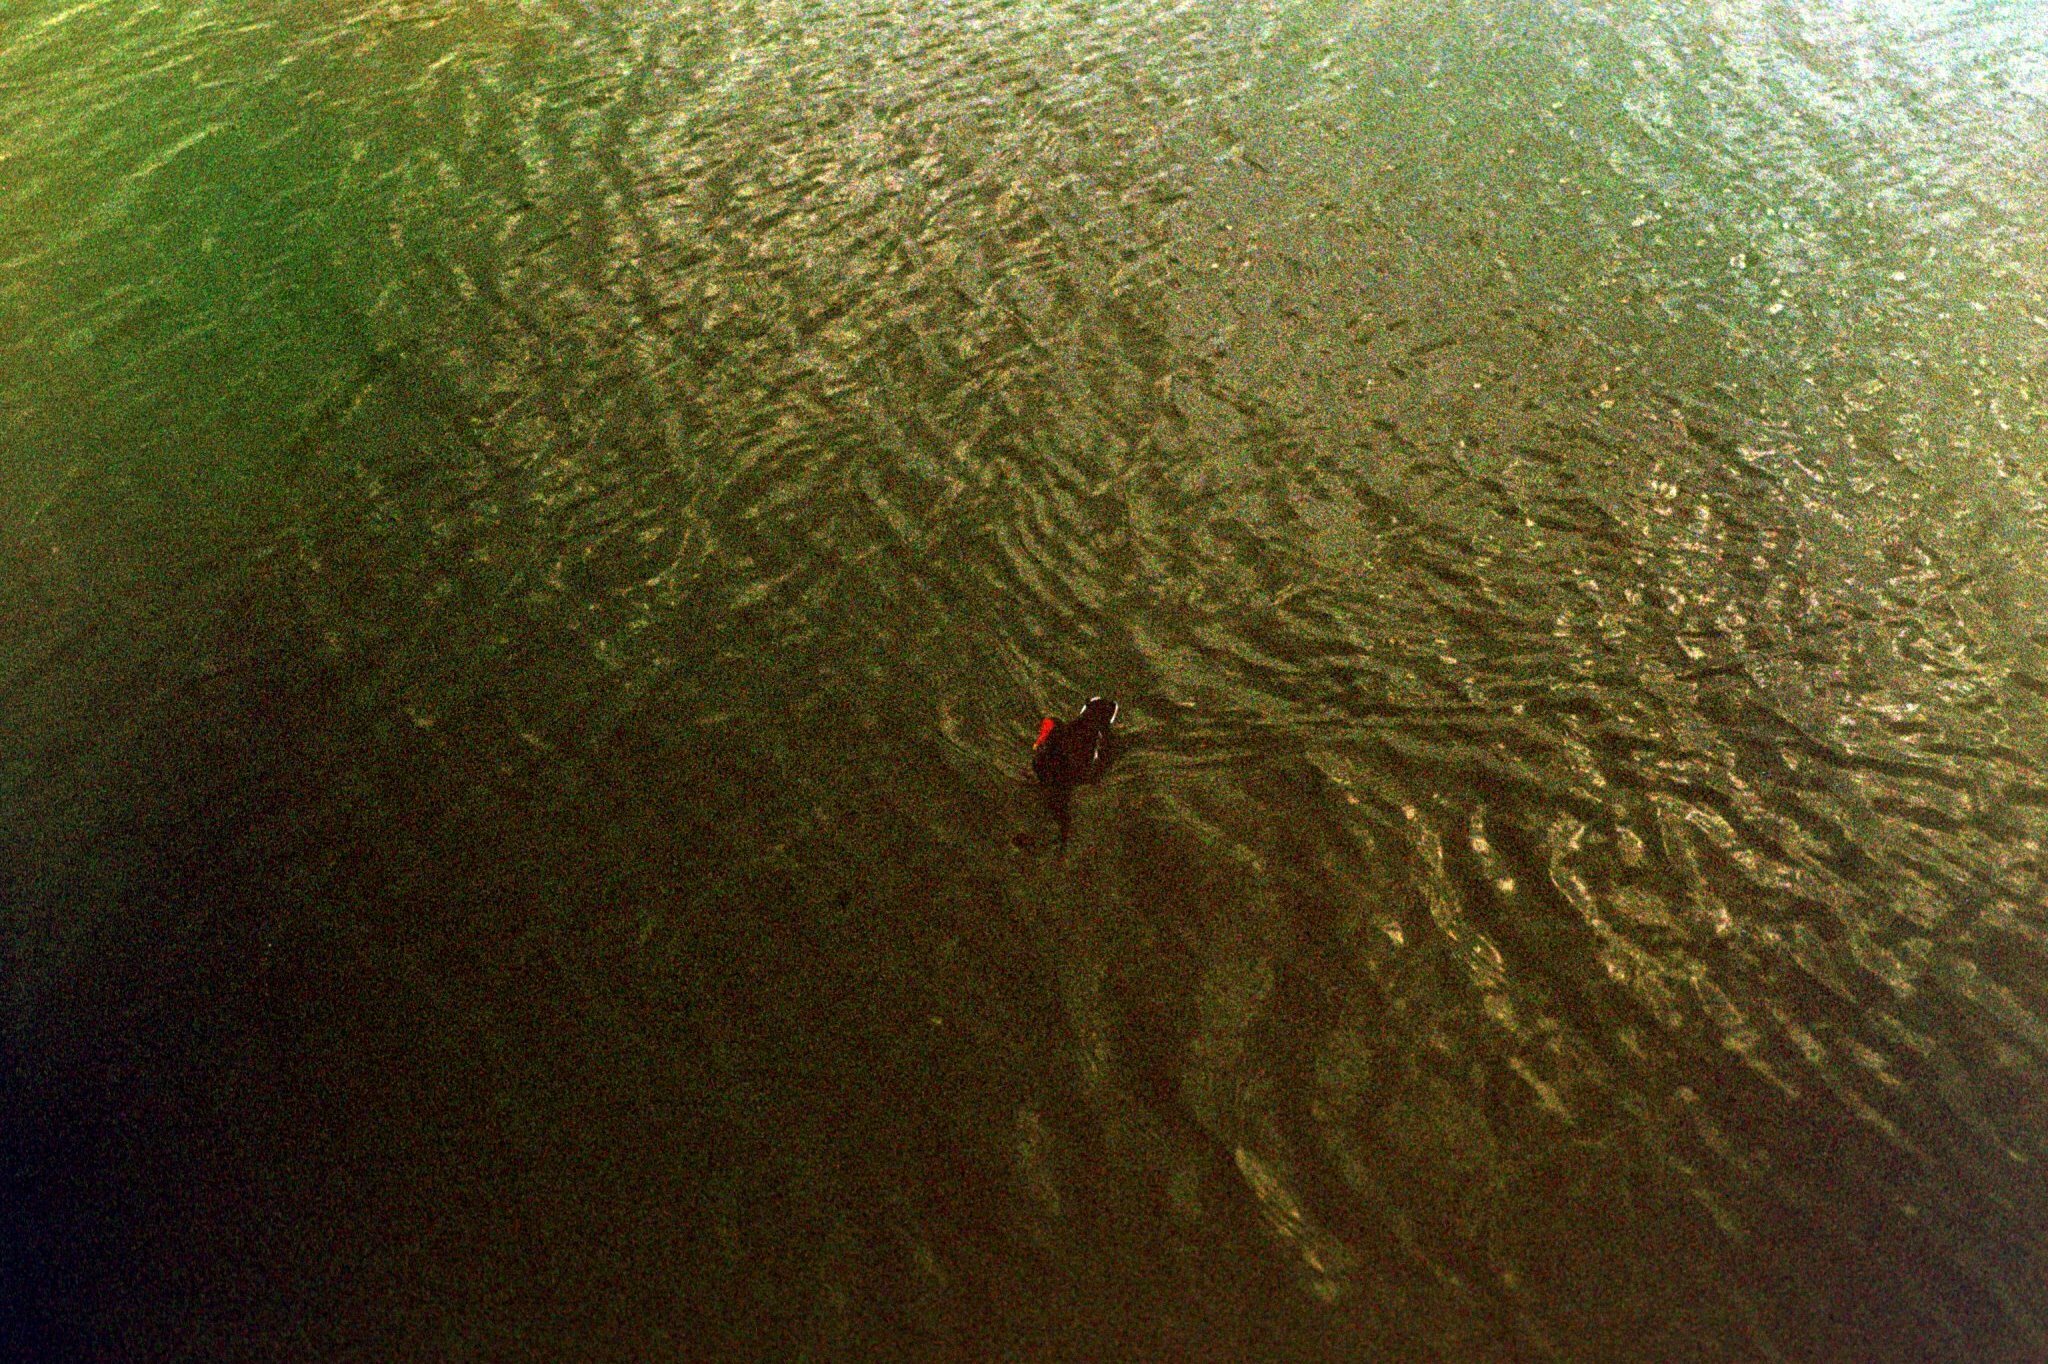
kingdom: Animalia
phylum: Chordata
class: Aves
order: Gruiformes
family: Rallidae
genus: Gallinula
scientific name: Gallinula chloropus
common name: Common moorhen
